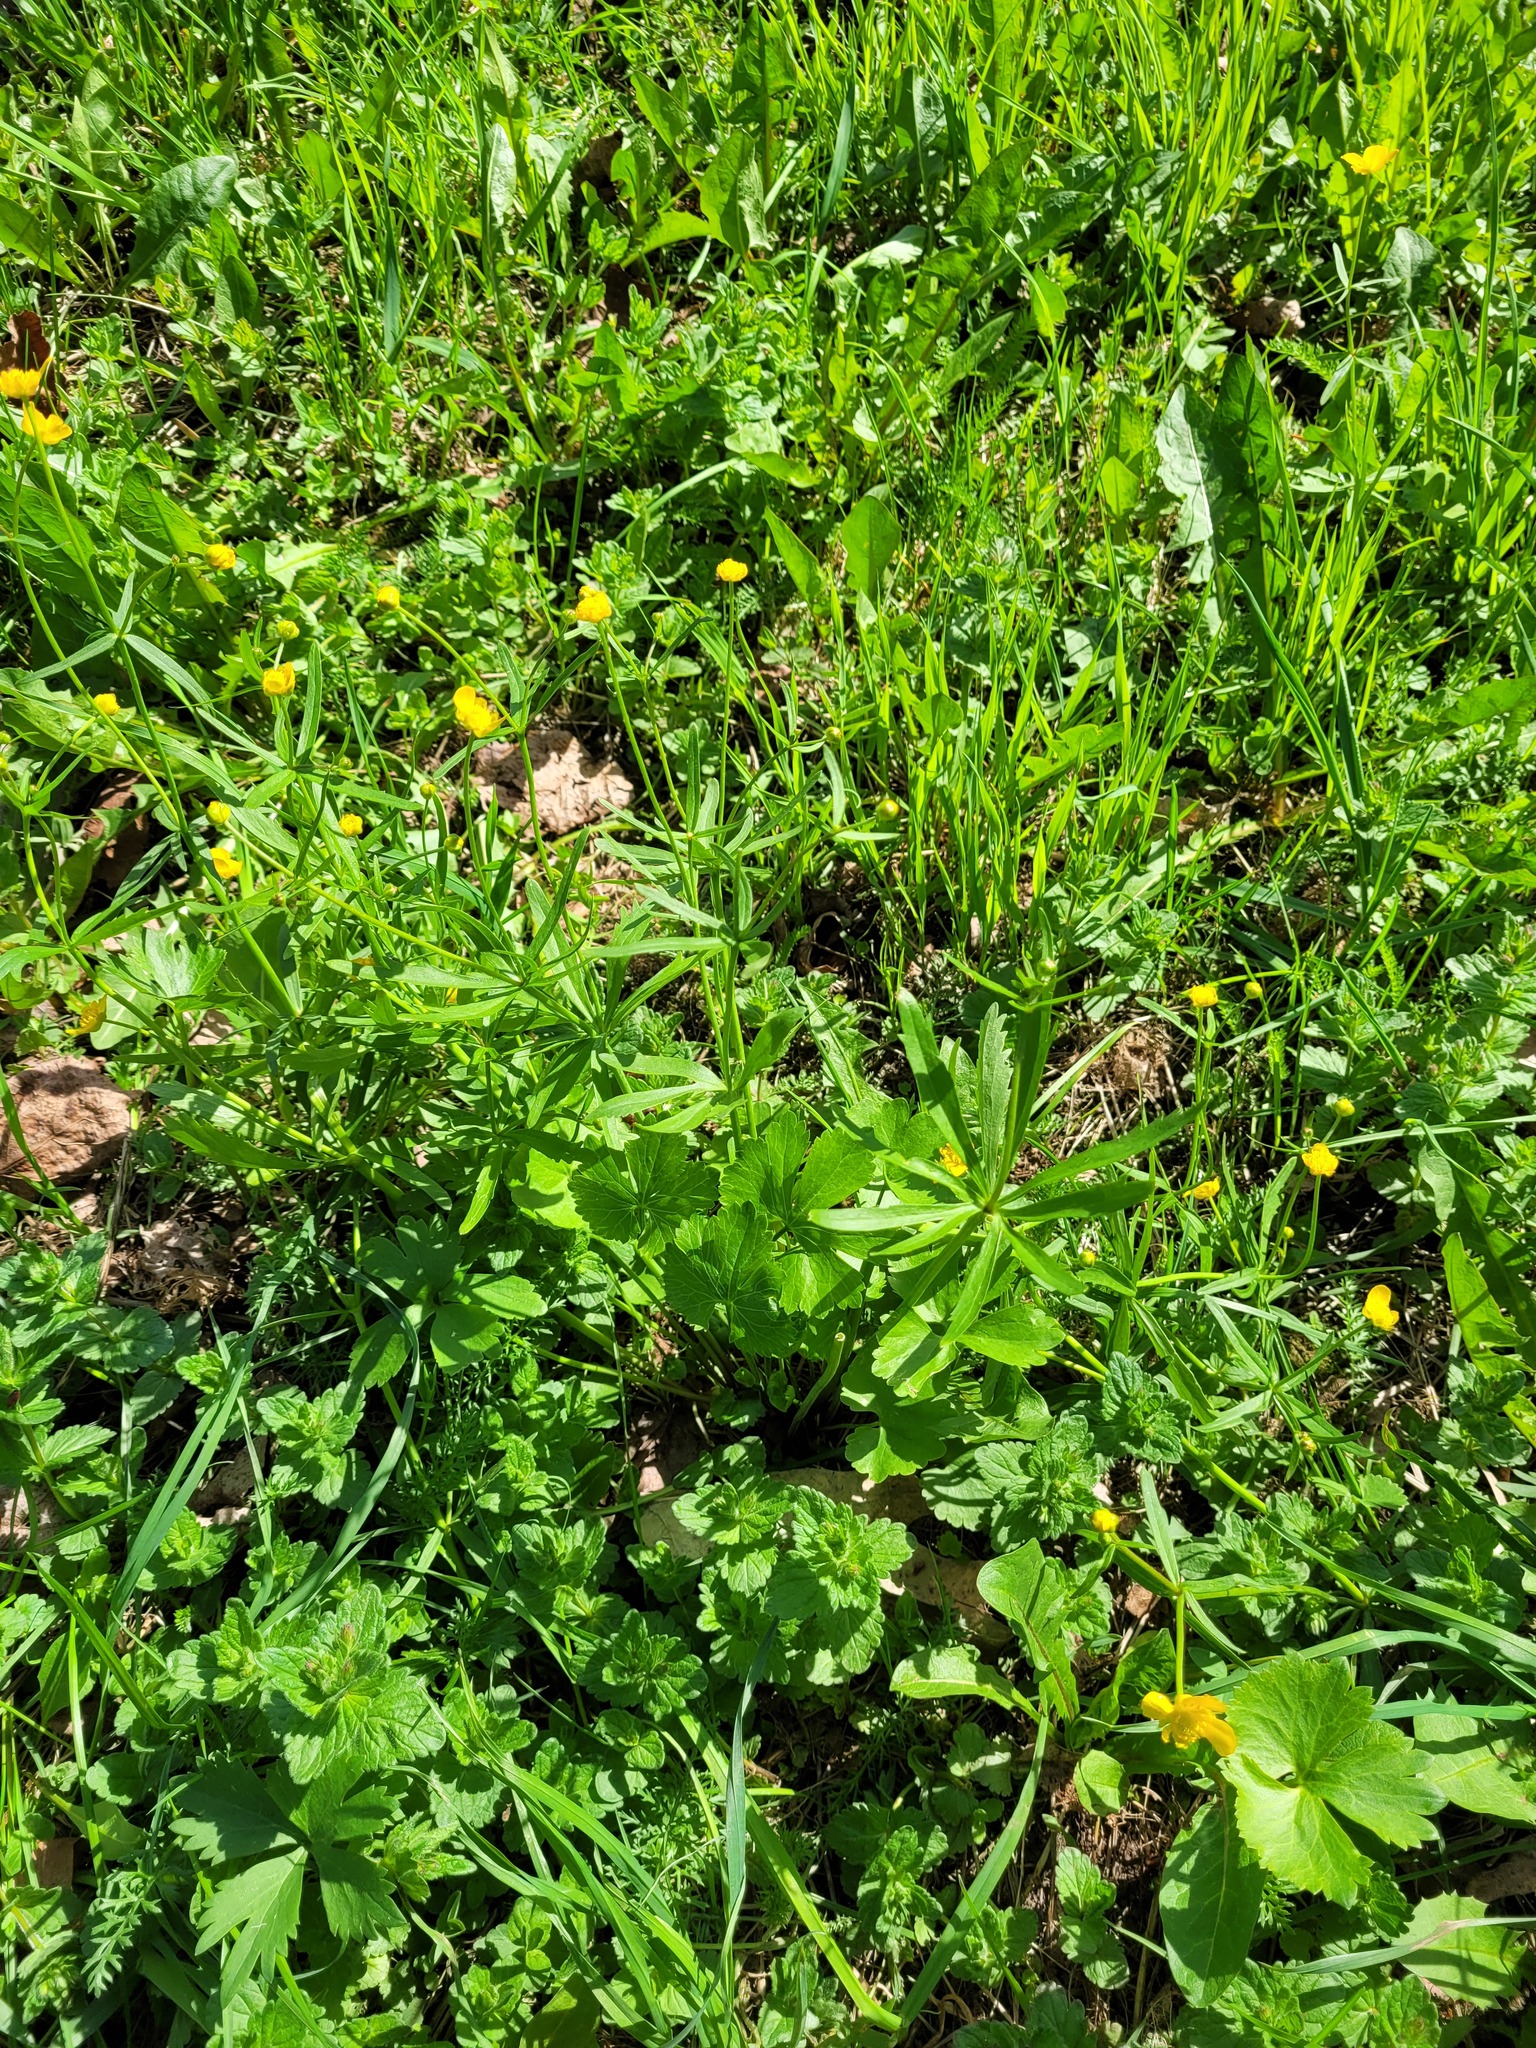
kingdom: Plantae
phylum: Tracheophyta
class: Magnoliopsida
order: Ranunculales
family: Ranunculaceae
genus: Ranunculus
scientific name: Ranunculus fallax
